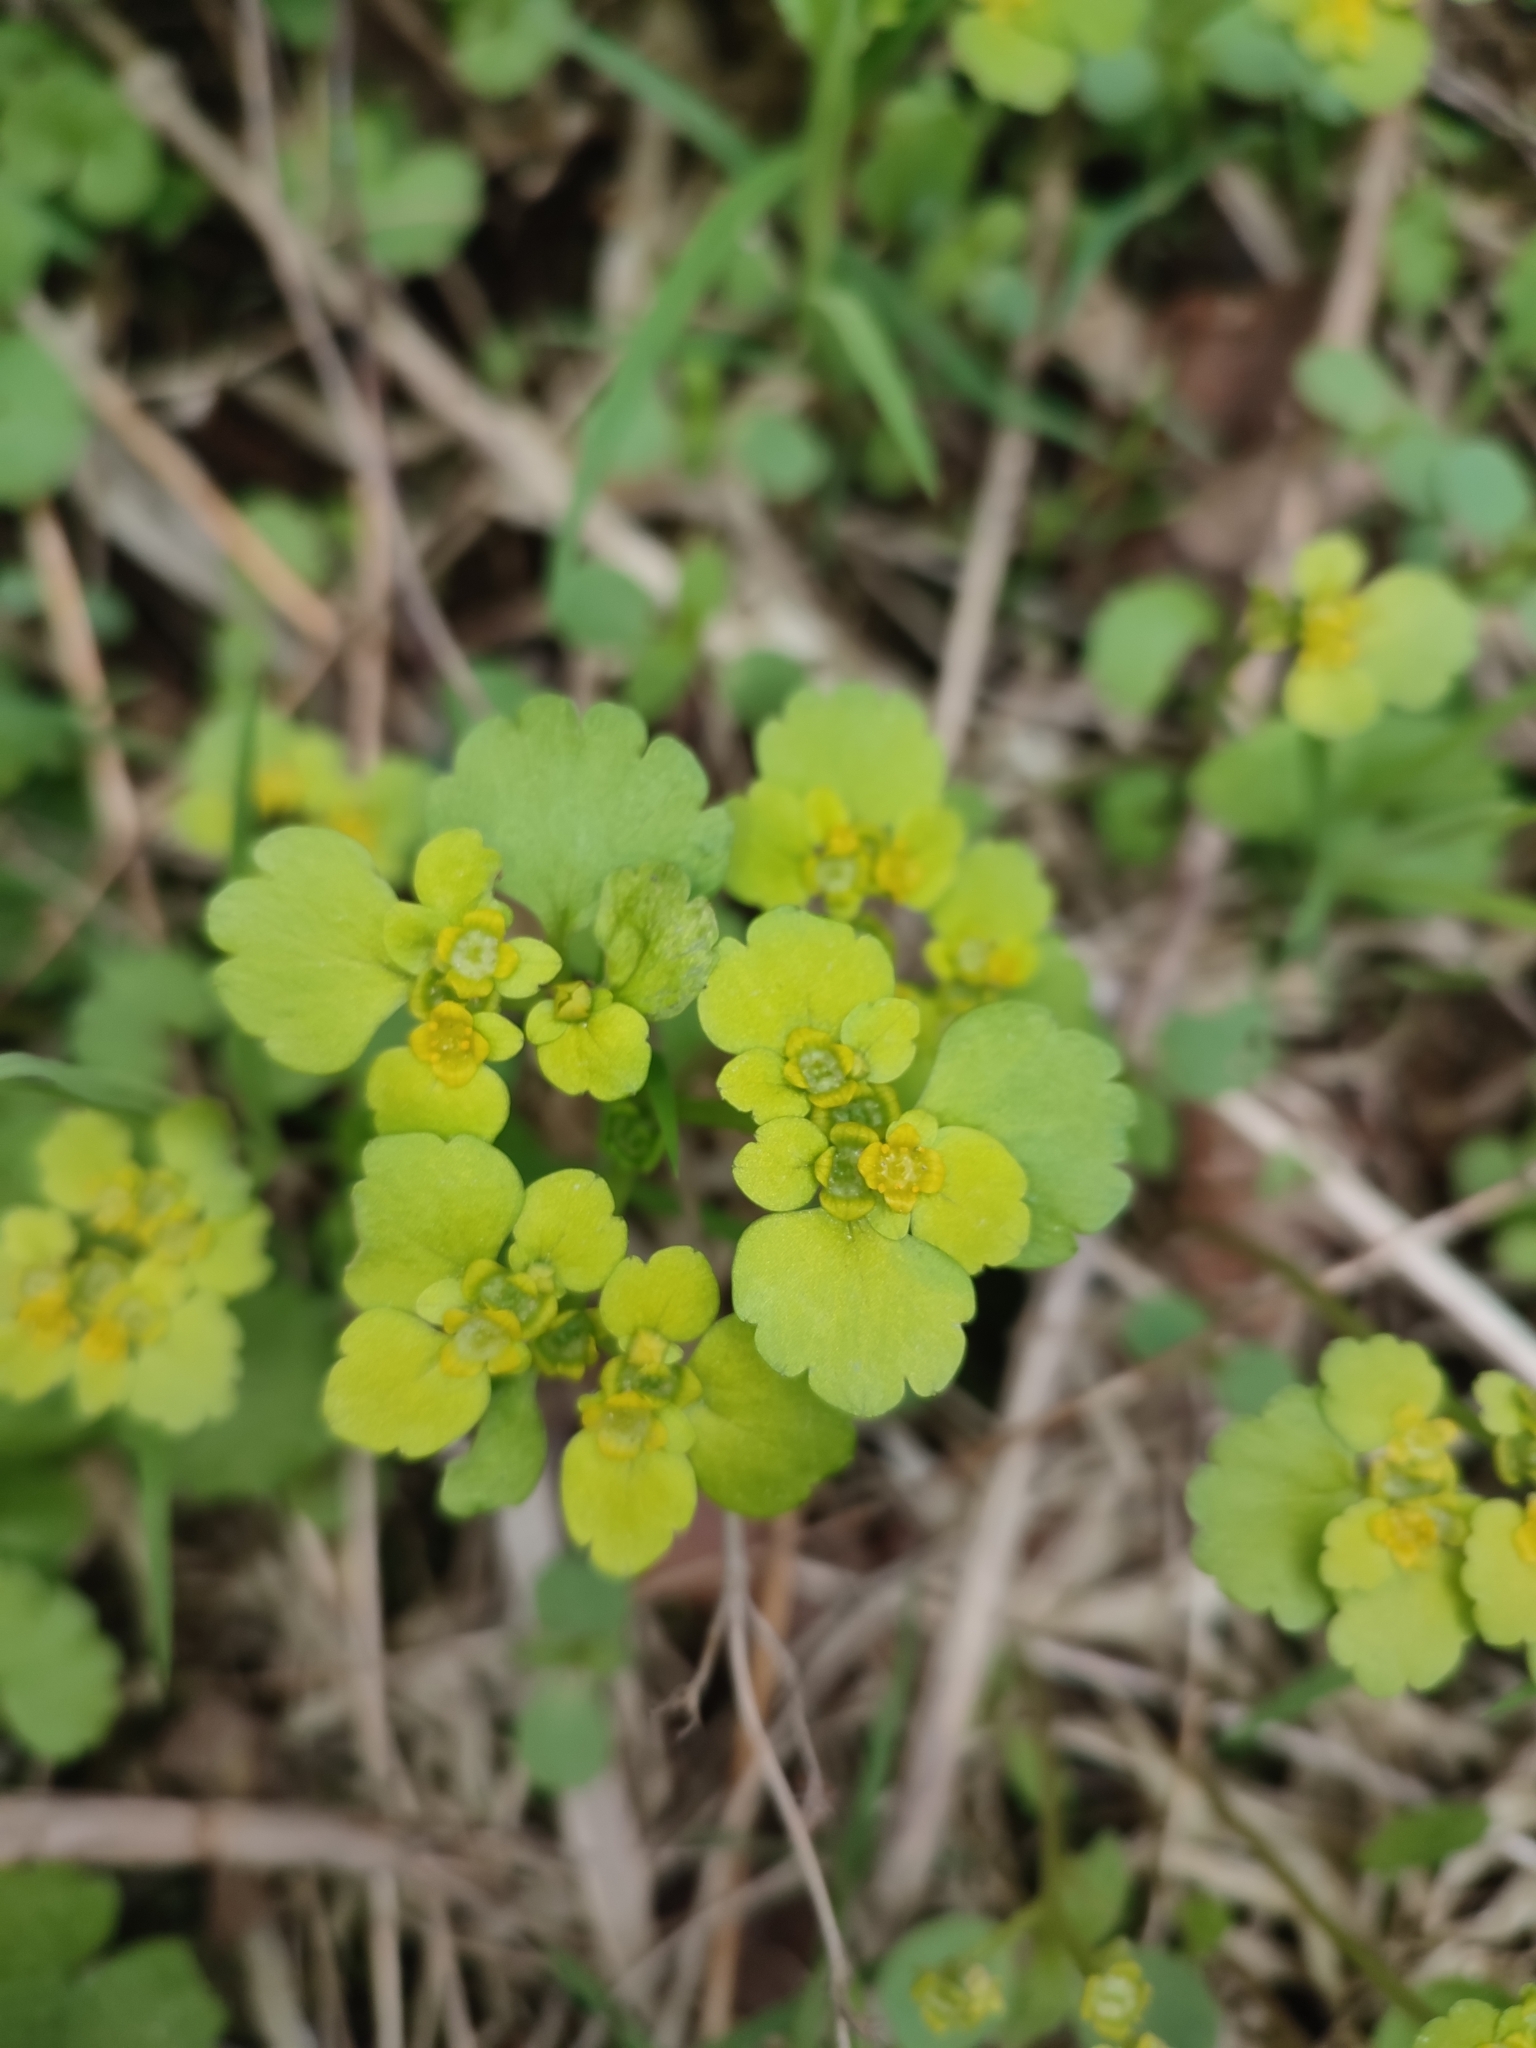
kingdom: Plantae
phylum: Tracheophyta
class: Magnoliopsida
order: Saxifragales
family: Saxifragaceae
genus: Chrysosplenium
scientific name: Chrysosplenium alternifolium
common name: Alternate-leaved golden-saxifrage
